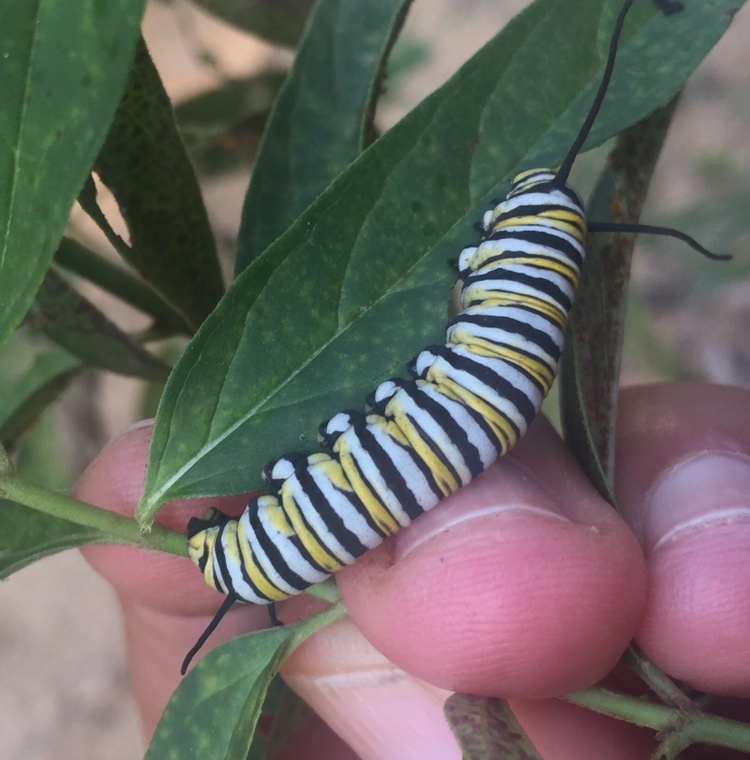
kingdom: Animalia
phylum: Arthropoda
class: Insecta
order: Lepidoptera
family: Nymphalidae
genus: Danaus
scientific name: Danaus plexippus
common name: Monarch
